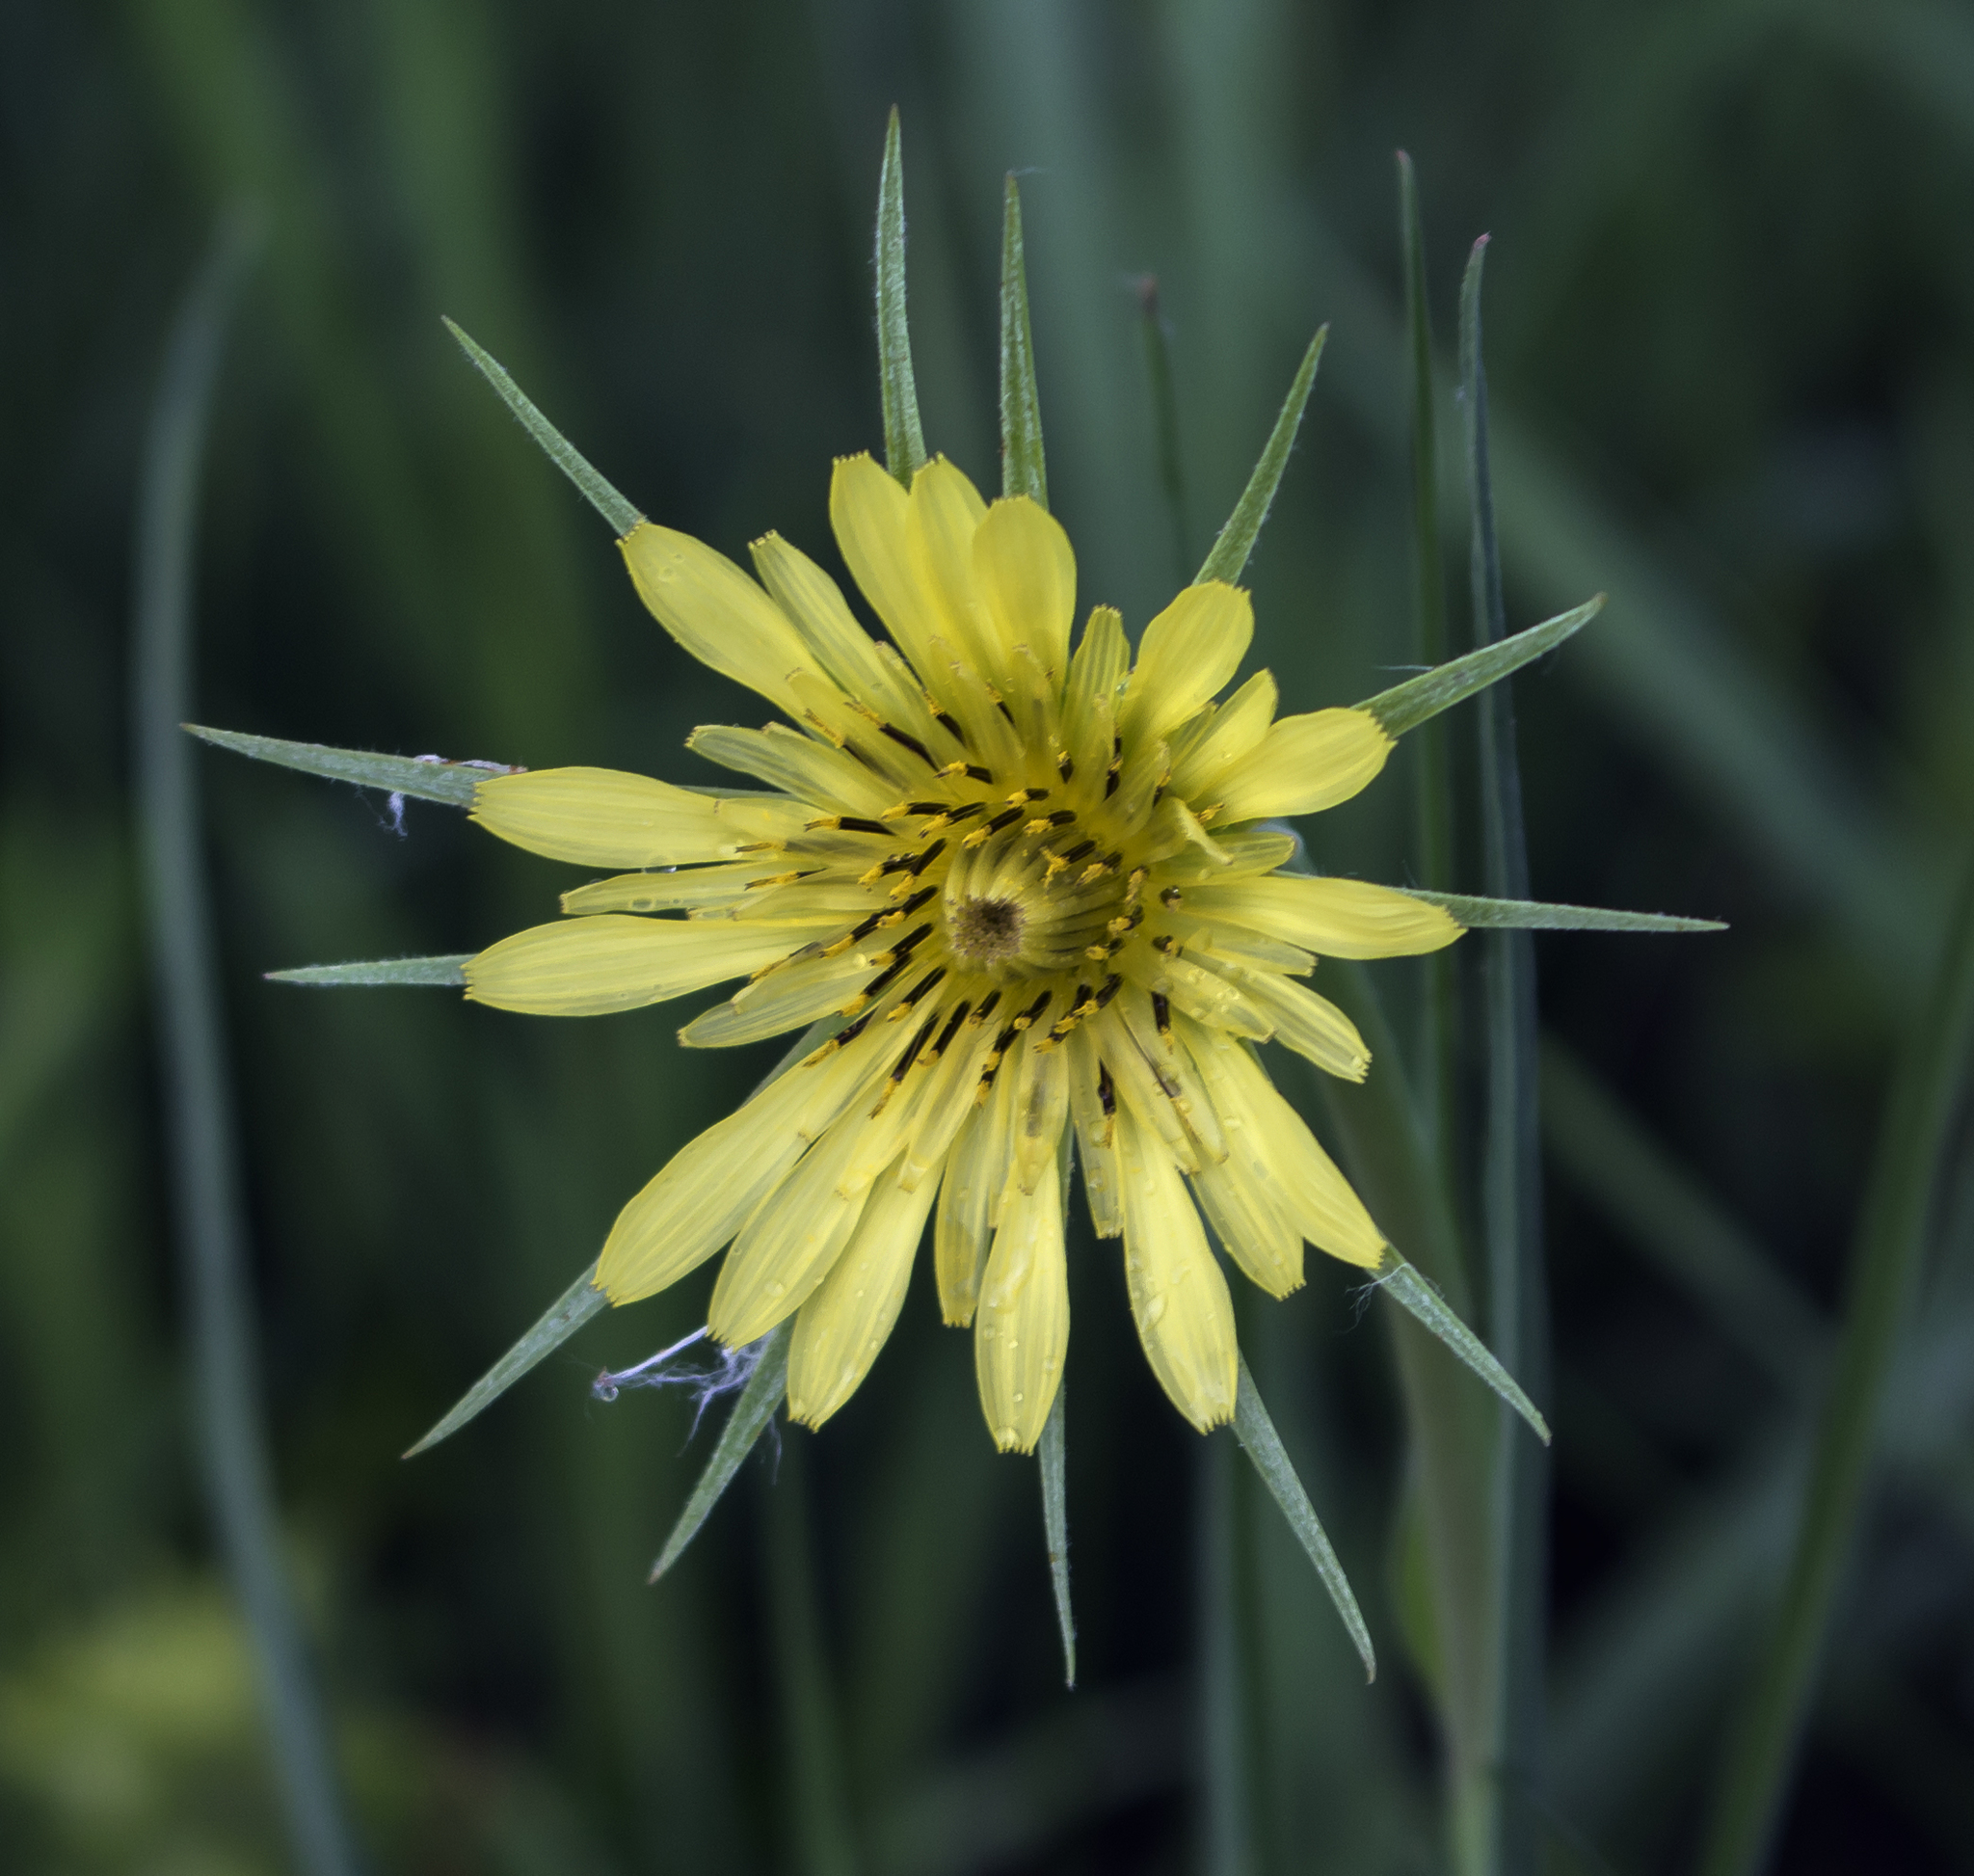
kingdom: Plantae
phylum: Tracheophyta
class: Magnoliopsida
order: Asterales
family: Asteraceae
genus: Tragopogon
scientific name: Tragopogon dubius
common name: Yellow salsify
